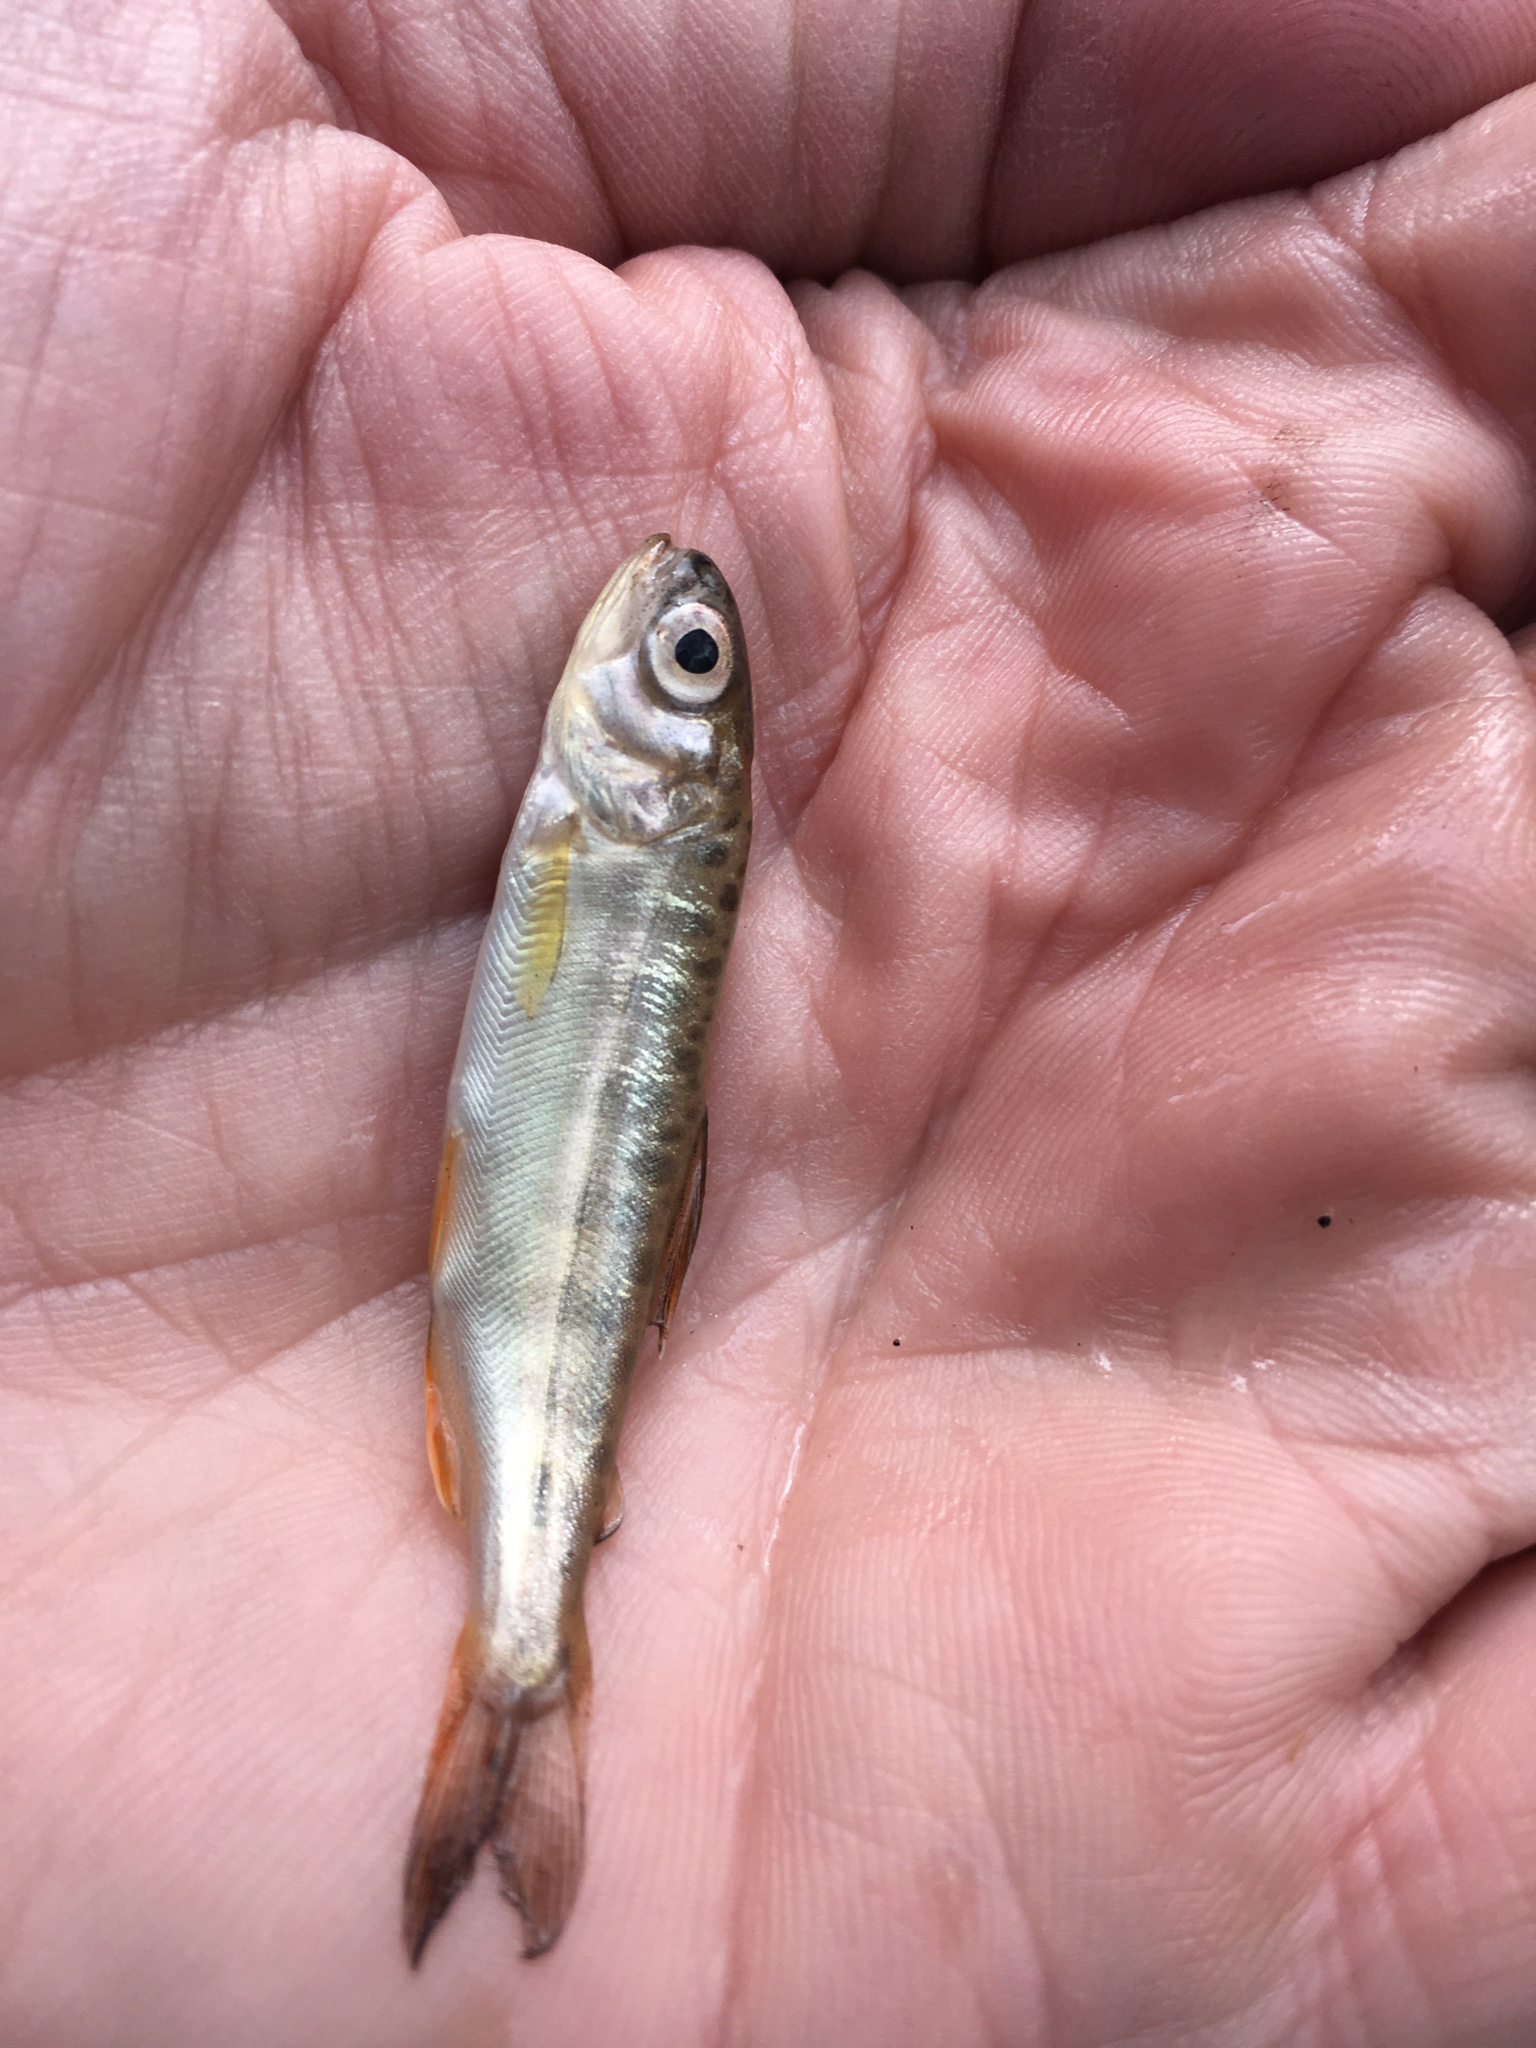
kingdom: Animalia
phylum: Chordata
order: Salmoniformes
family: Salmonidae
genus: Oncorhynchus
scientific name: Oncorhynchus tshawytscha
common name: Chinook salmon
